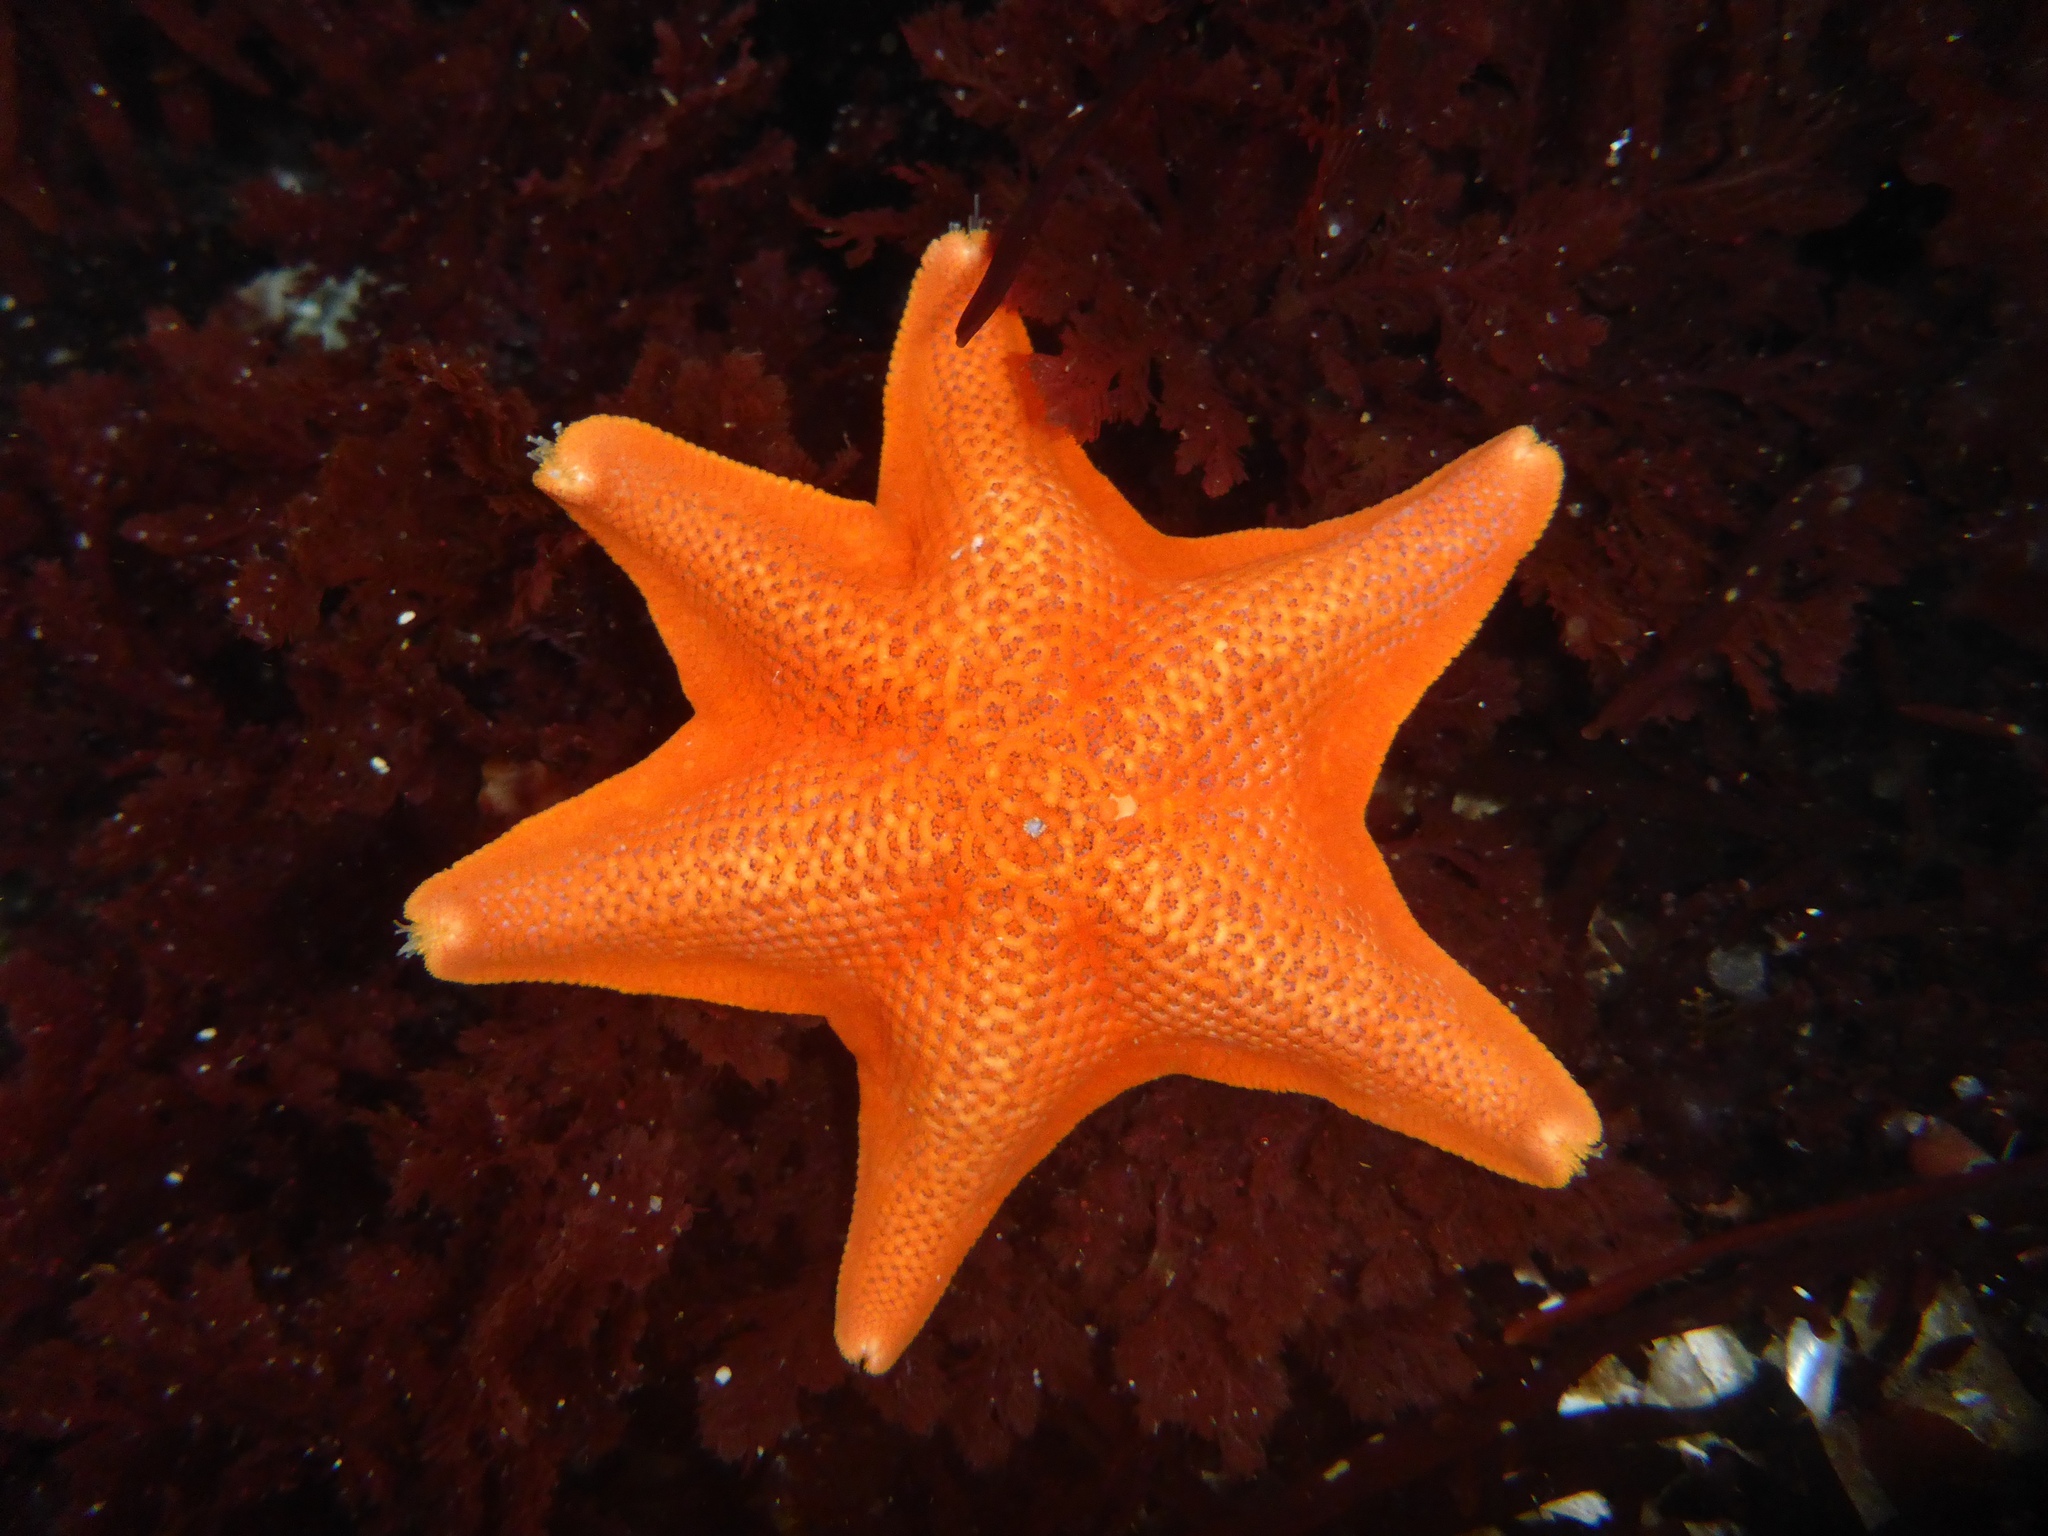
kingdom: Animalia
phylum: Echinodermata
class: Asteroidea
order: Valvatida
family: Asterinidae
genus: Patiria
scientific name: Patiria miniata
